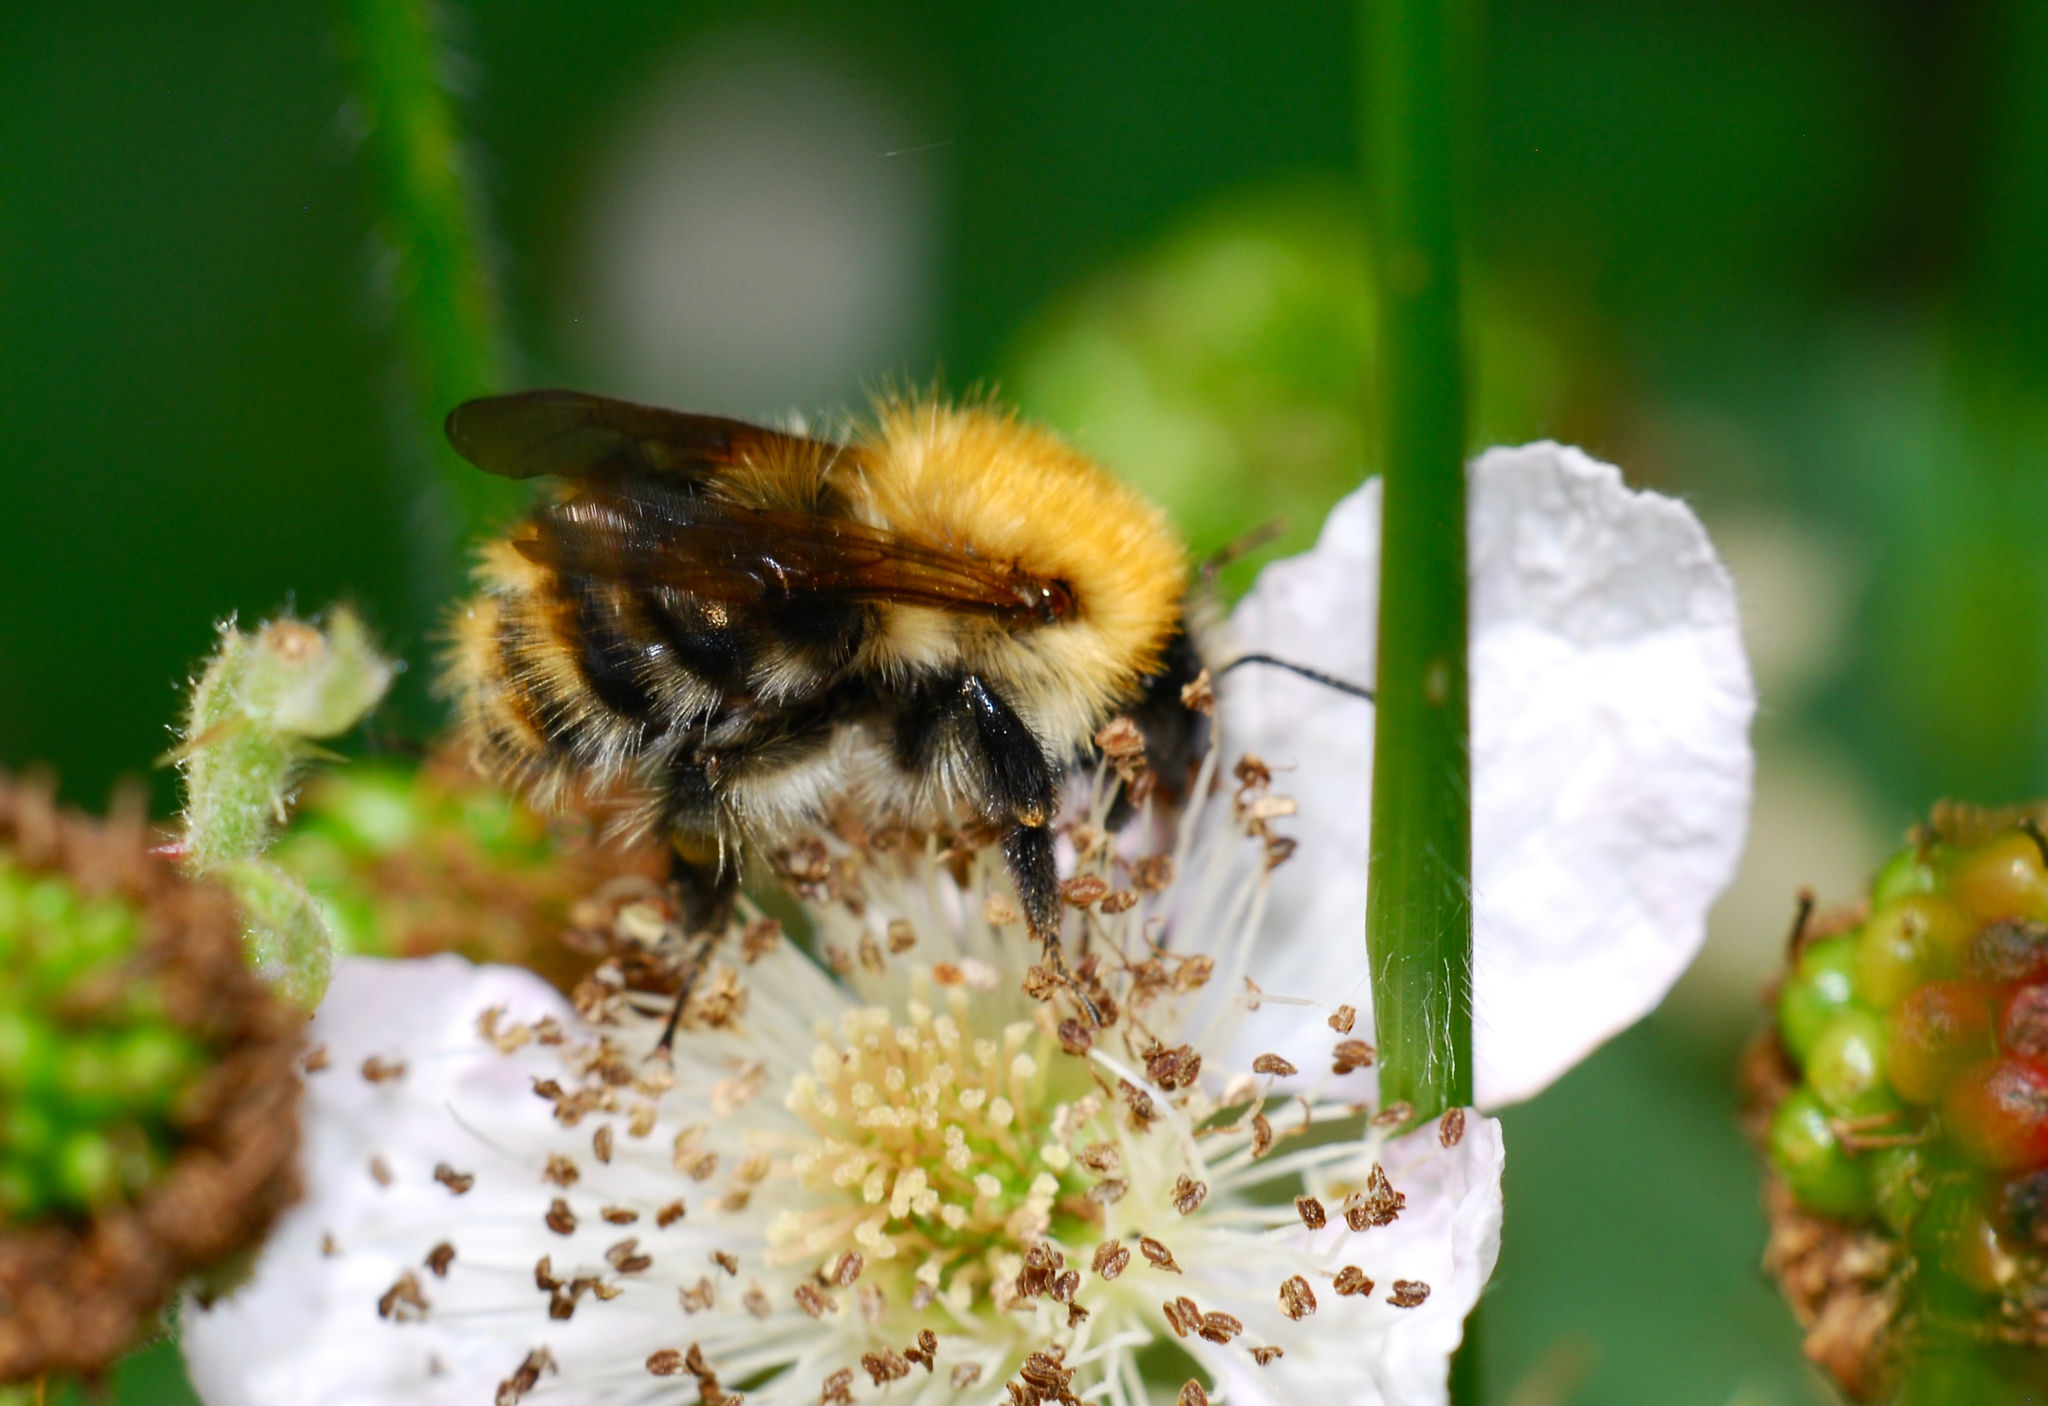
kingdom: Animalia
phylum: Arthropoda
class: Insecta
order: Hymenoptera
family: Apidae
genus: Bombus
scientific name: Bombus pascuorum
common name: Common carder bee
